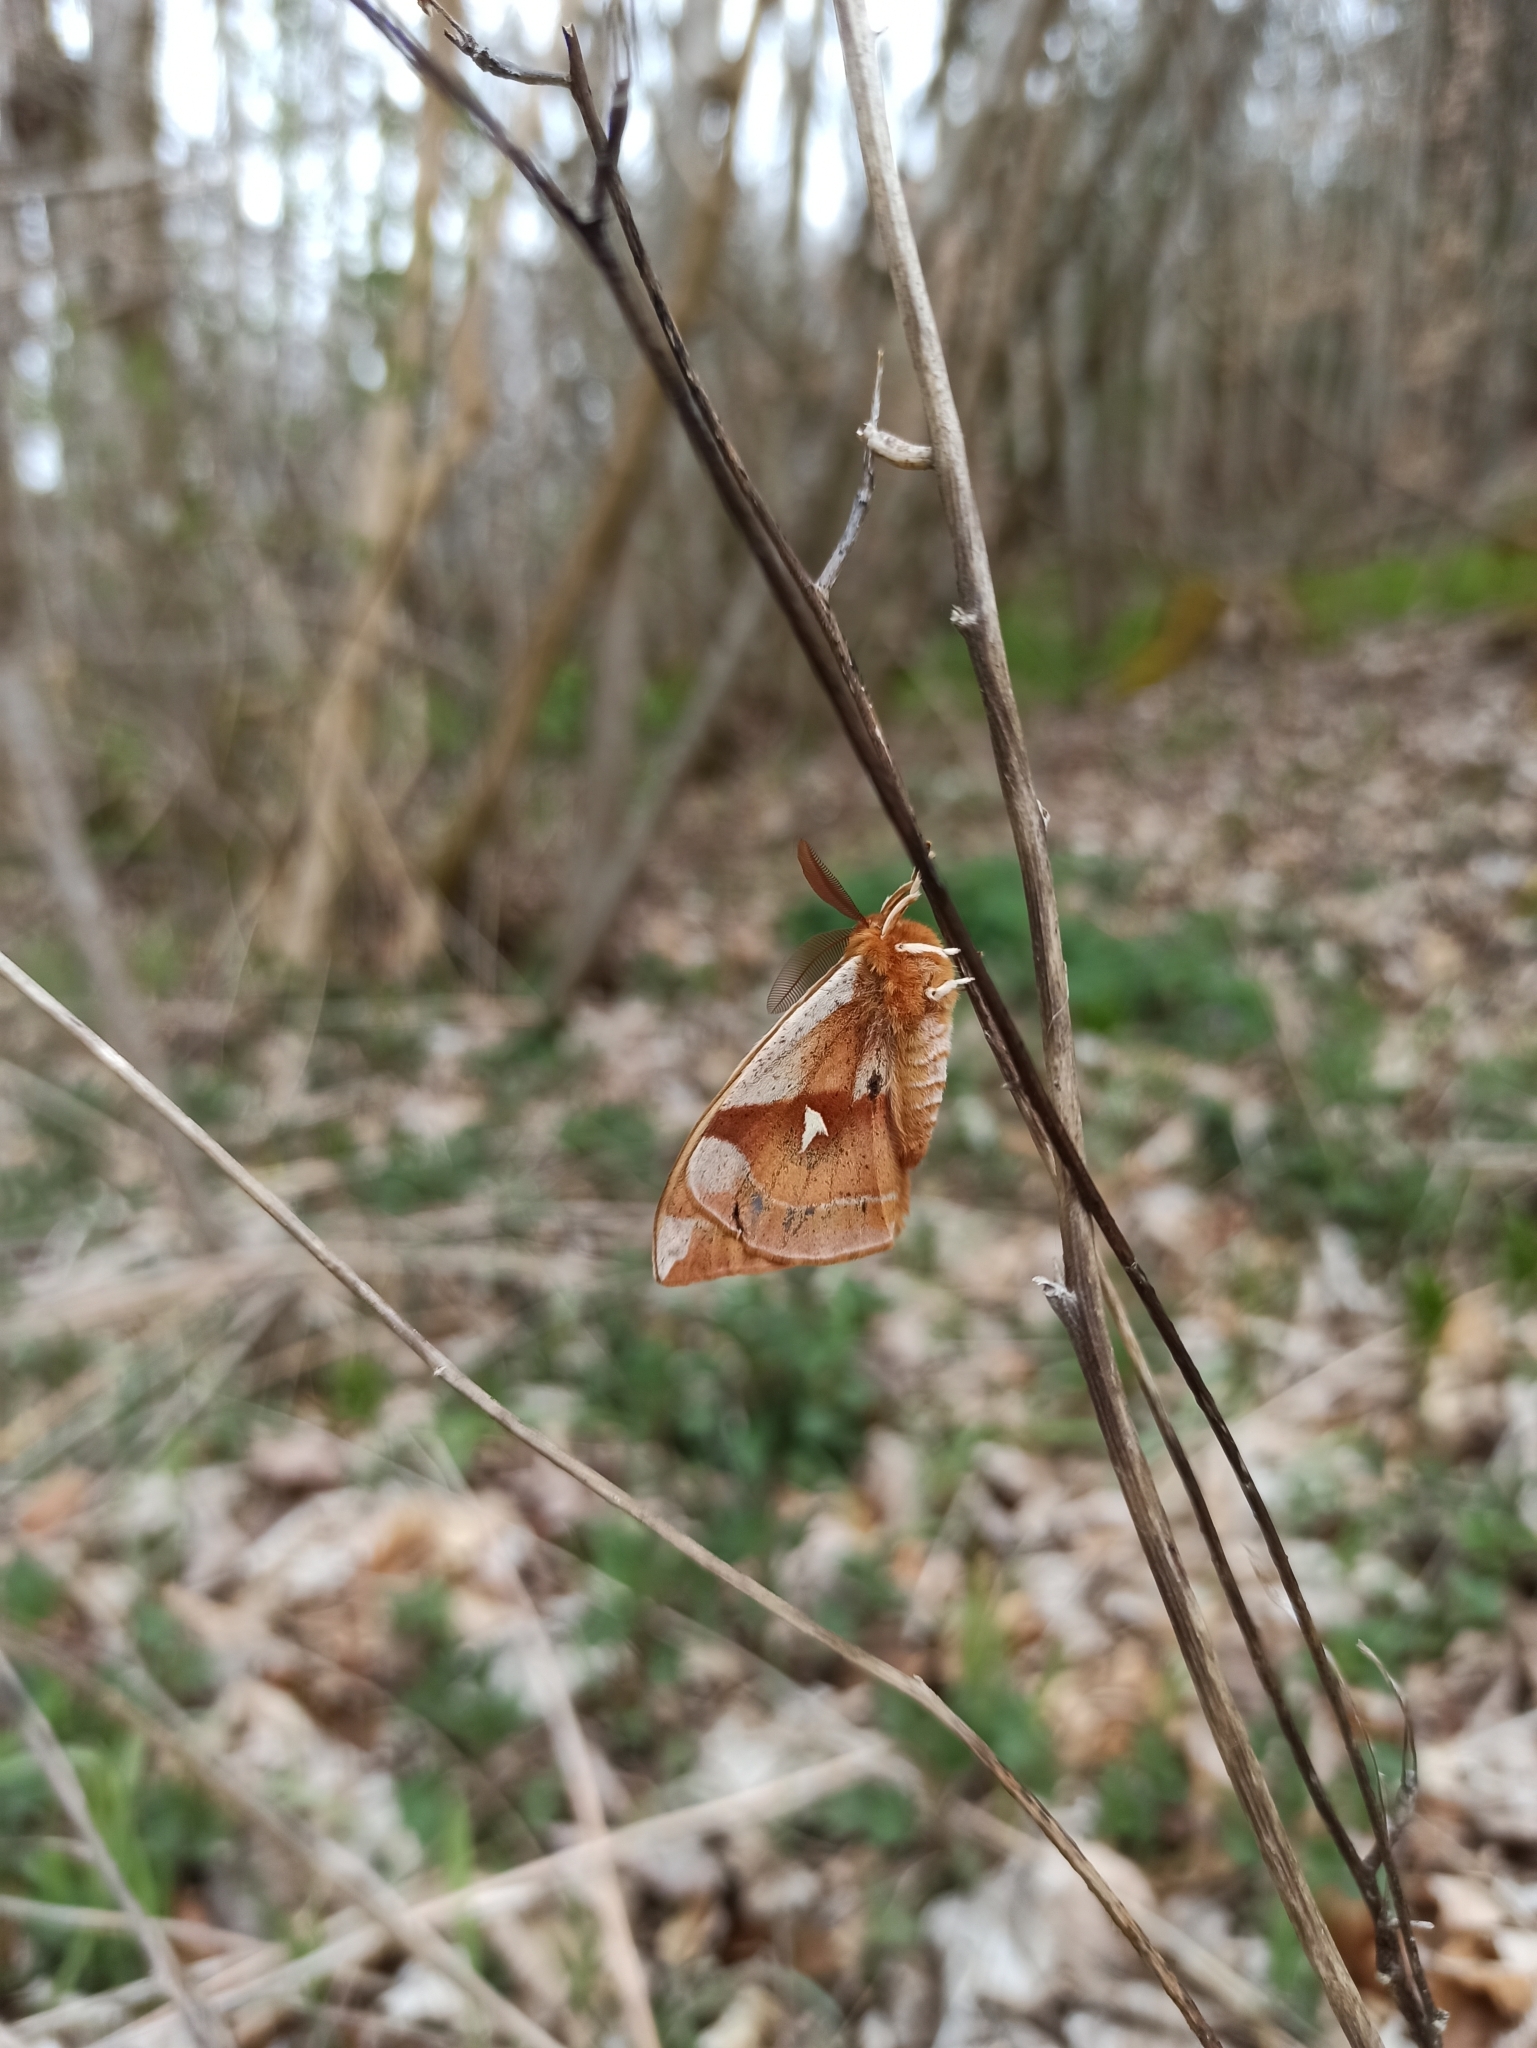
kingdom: Animalia
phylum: Arthropoda
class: Insecta
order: Lepidoptera
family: Saturniidae
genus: Aglia
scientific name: Aglia tau
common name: Tau emperor
